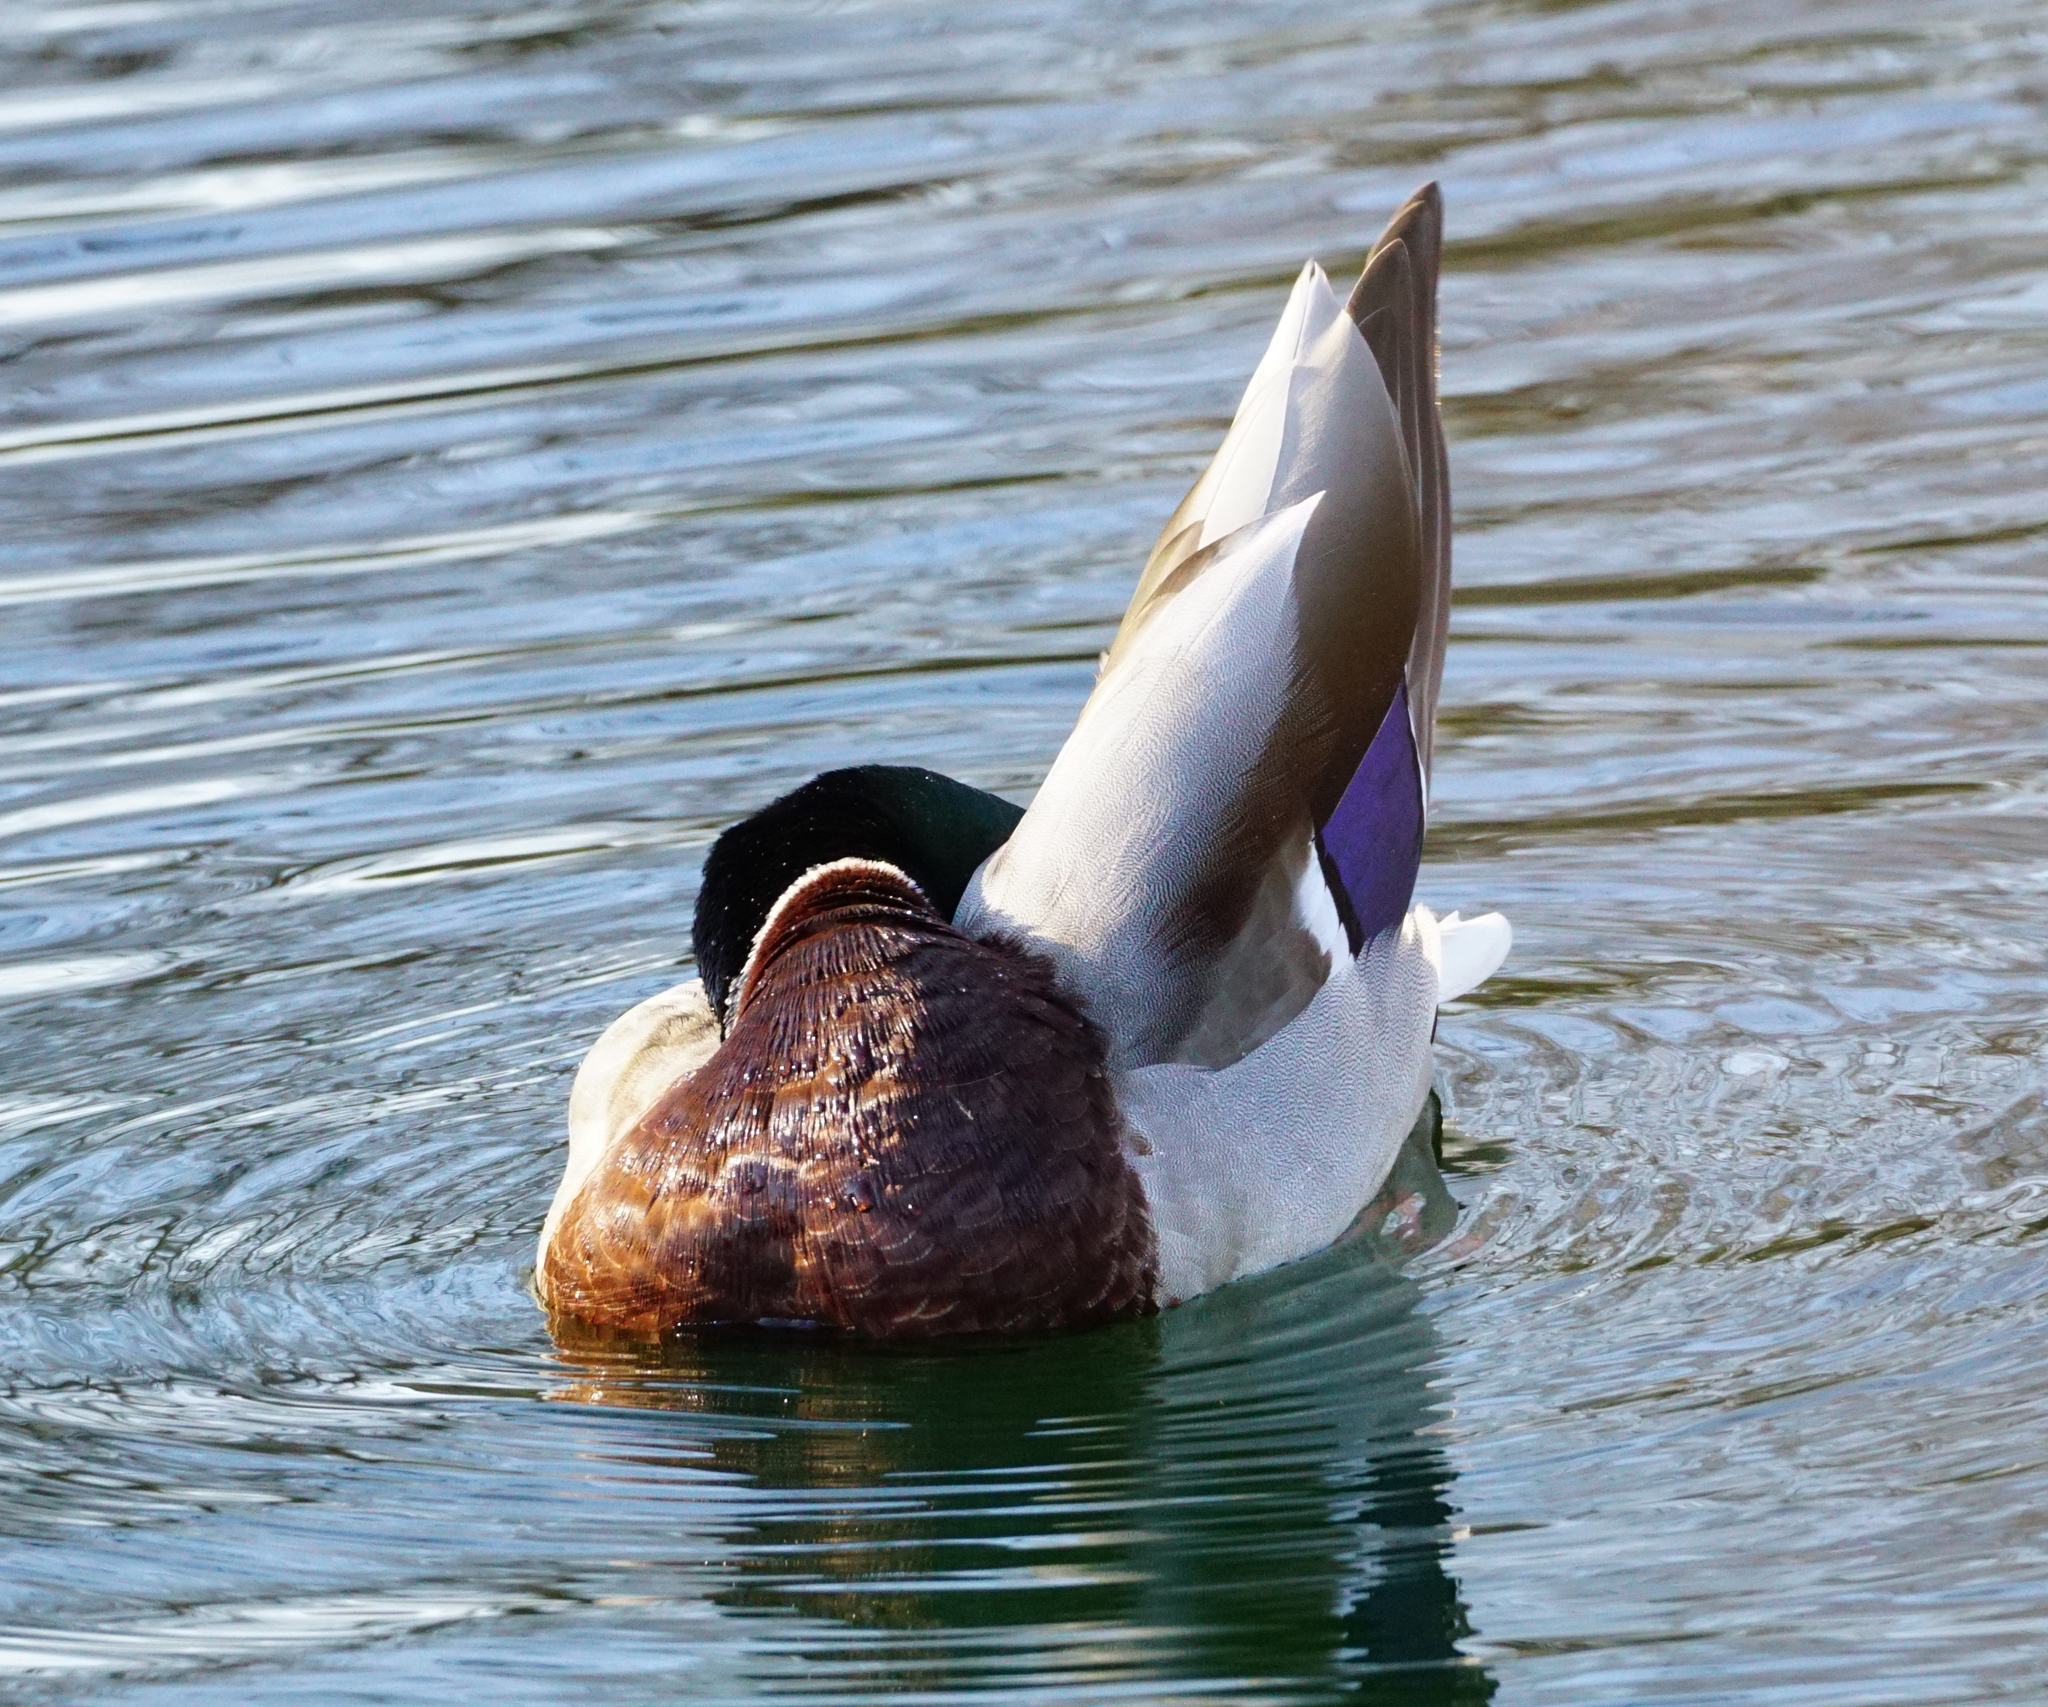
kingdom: Animalia
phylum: Chordata
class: Aves
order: Anseriformes
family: Anatidae
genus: Anas
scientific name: Anas platyrhynchos
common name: Mallard
